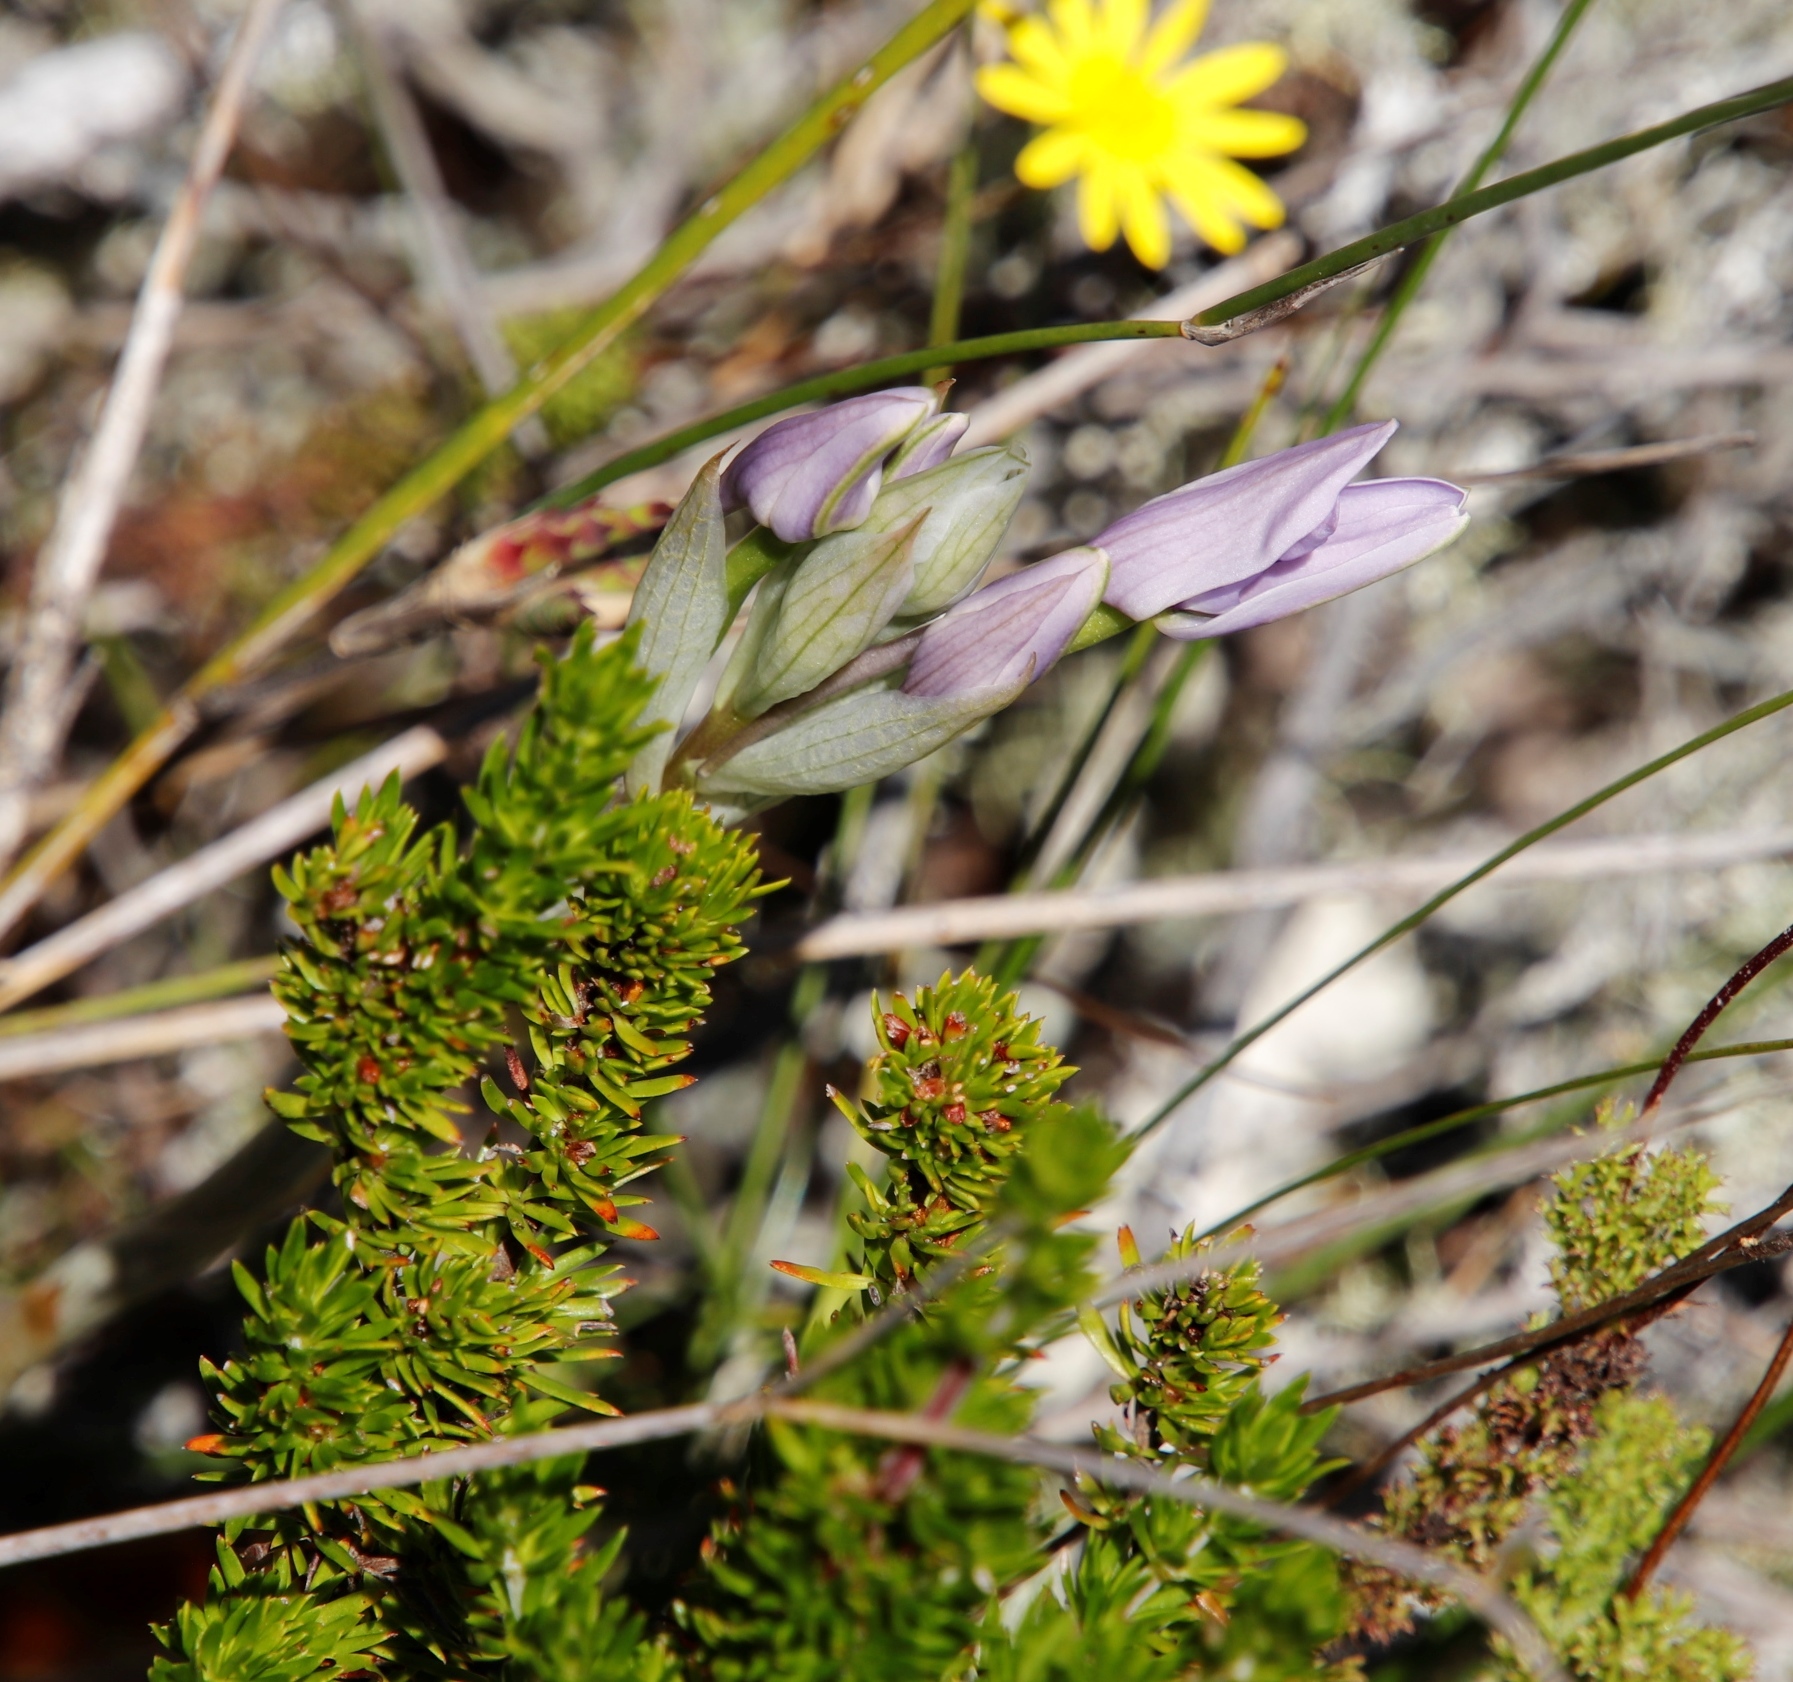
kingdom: Plantae
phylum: Tracheophyta
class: Liliopsida
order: Asparagales
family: Orchidaceae
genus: Disa
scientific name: Disa harveyana
